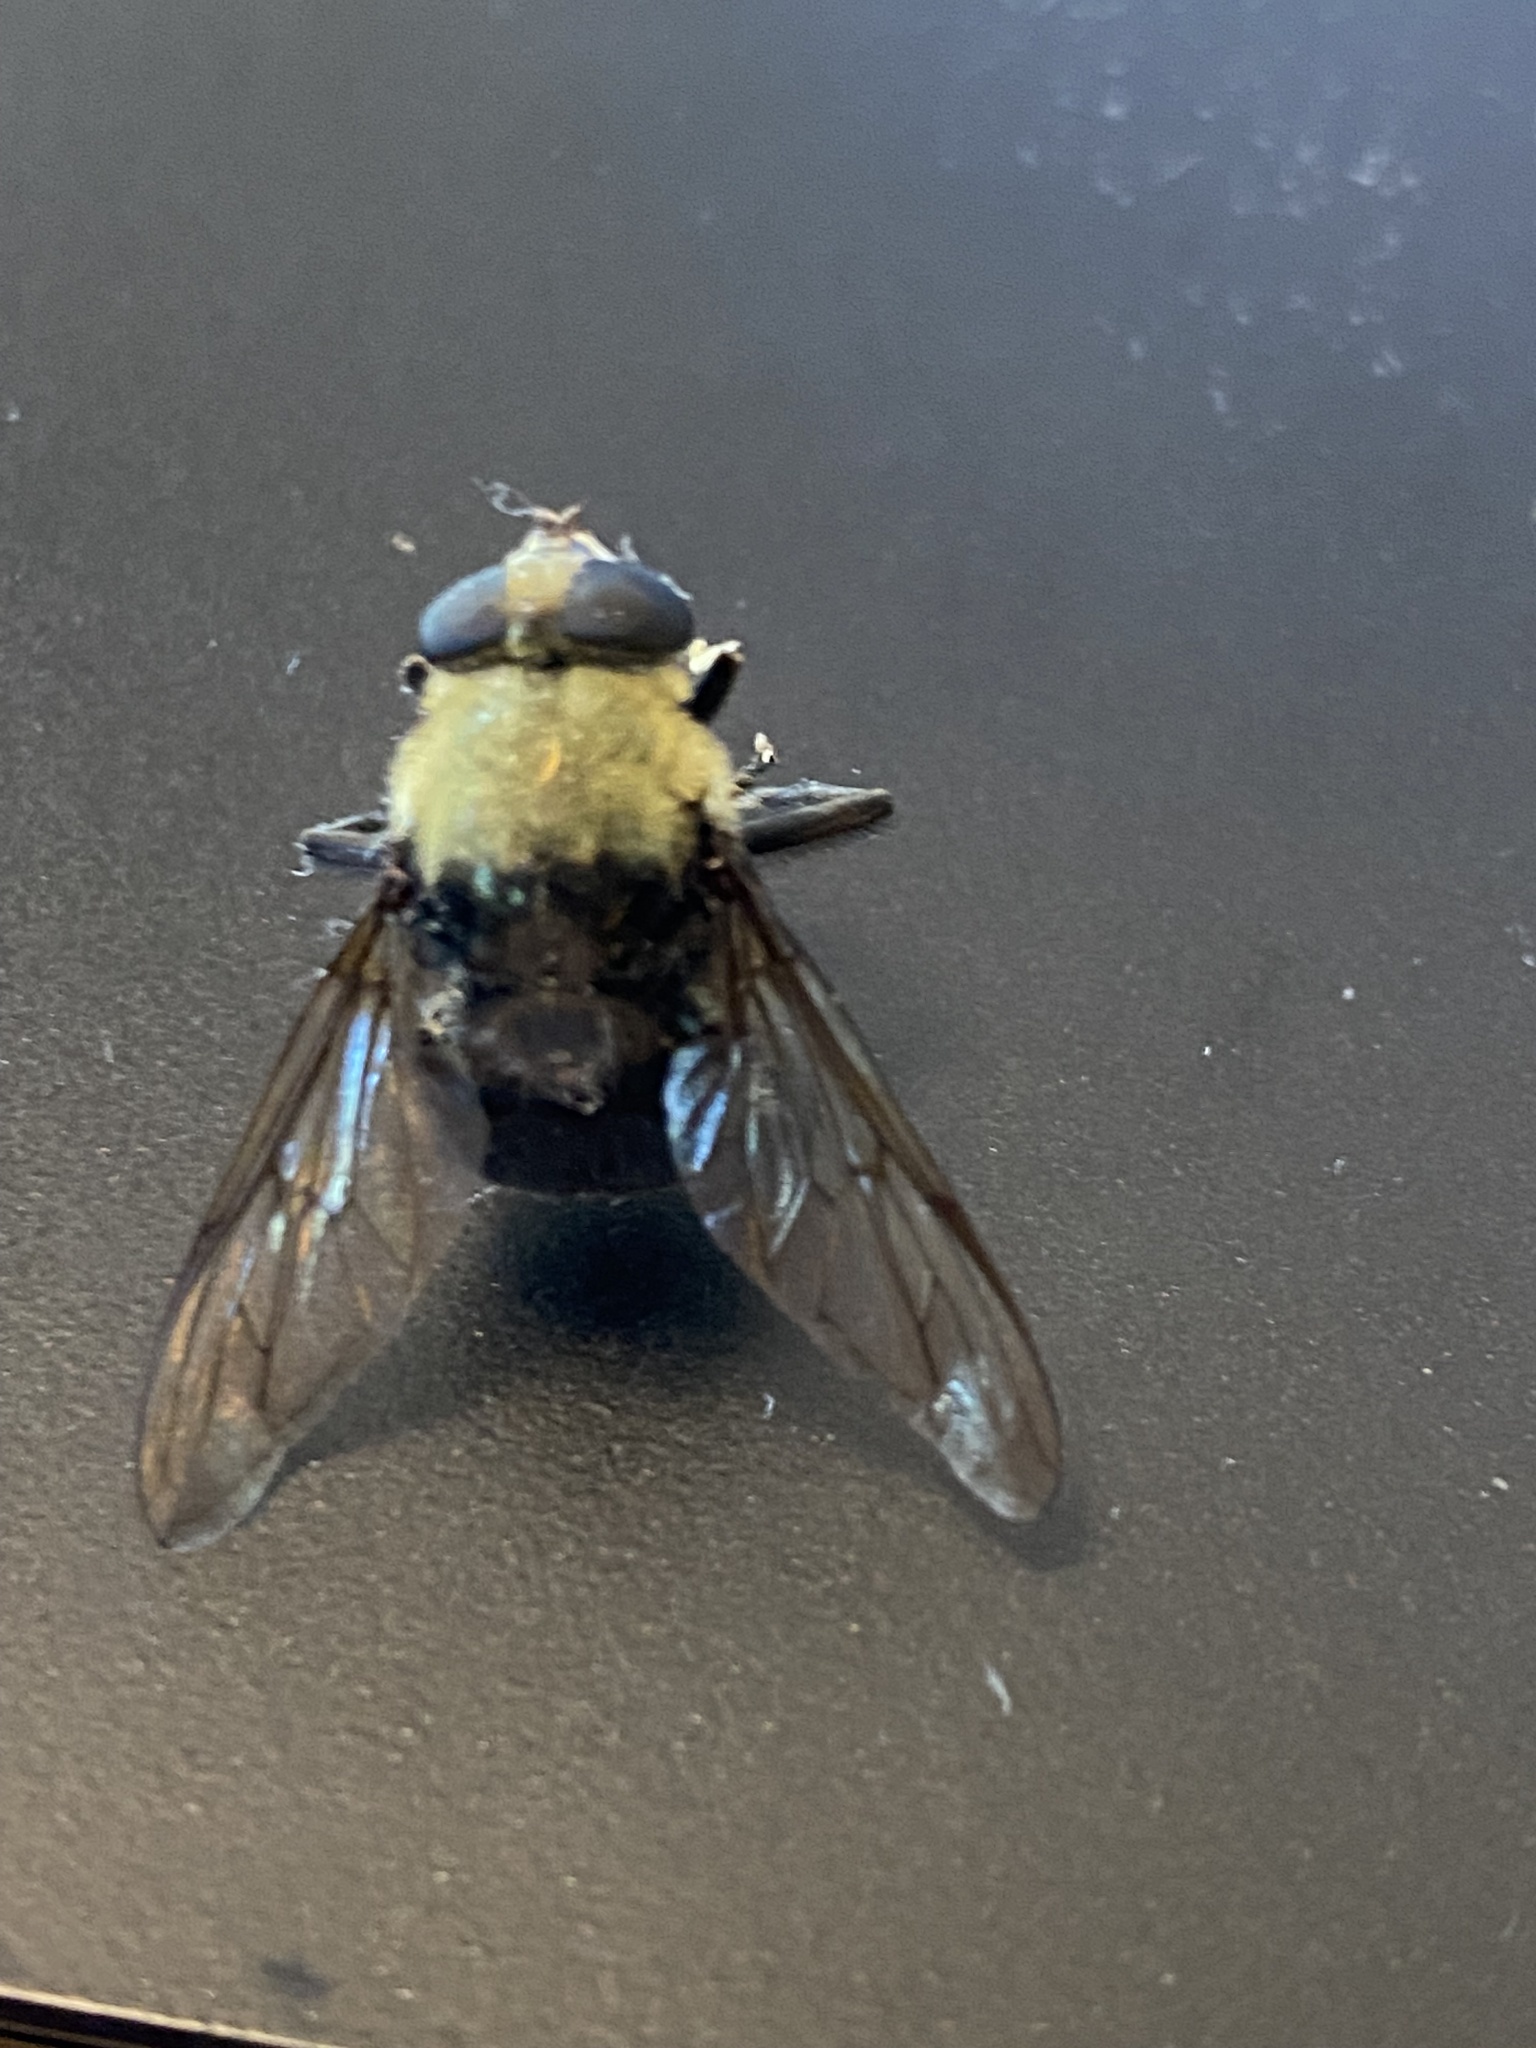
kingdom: Animalia
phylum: Arthropoda
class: Insecta
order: Diptera
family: Syrphidae
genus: Hadromyia
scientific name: Hadromyia grandis
